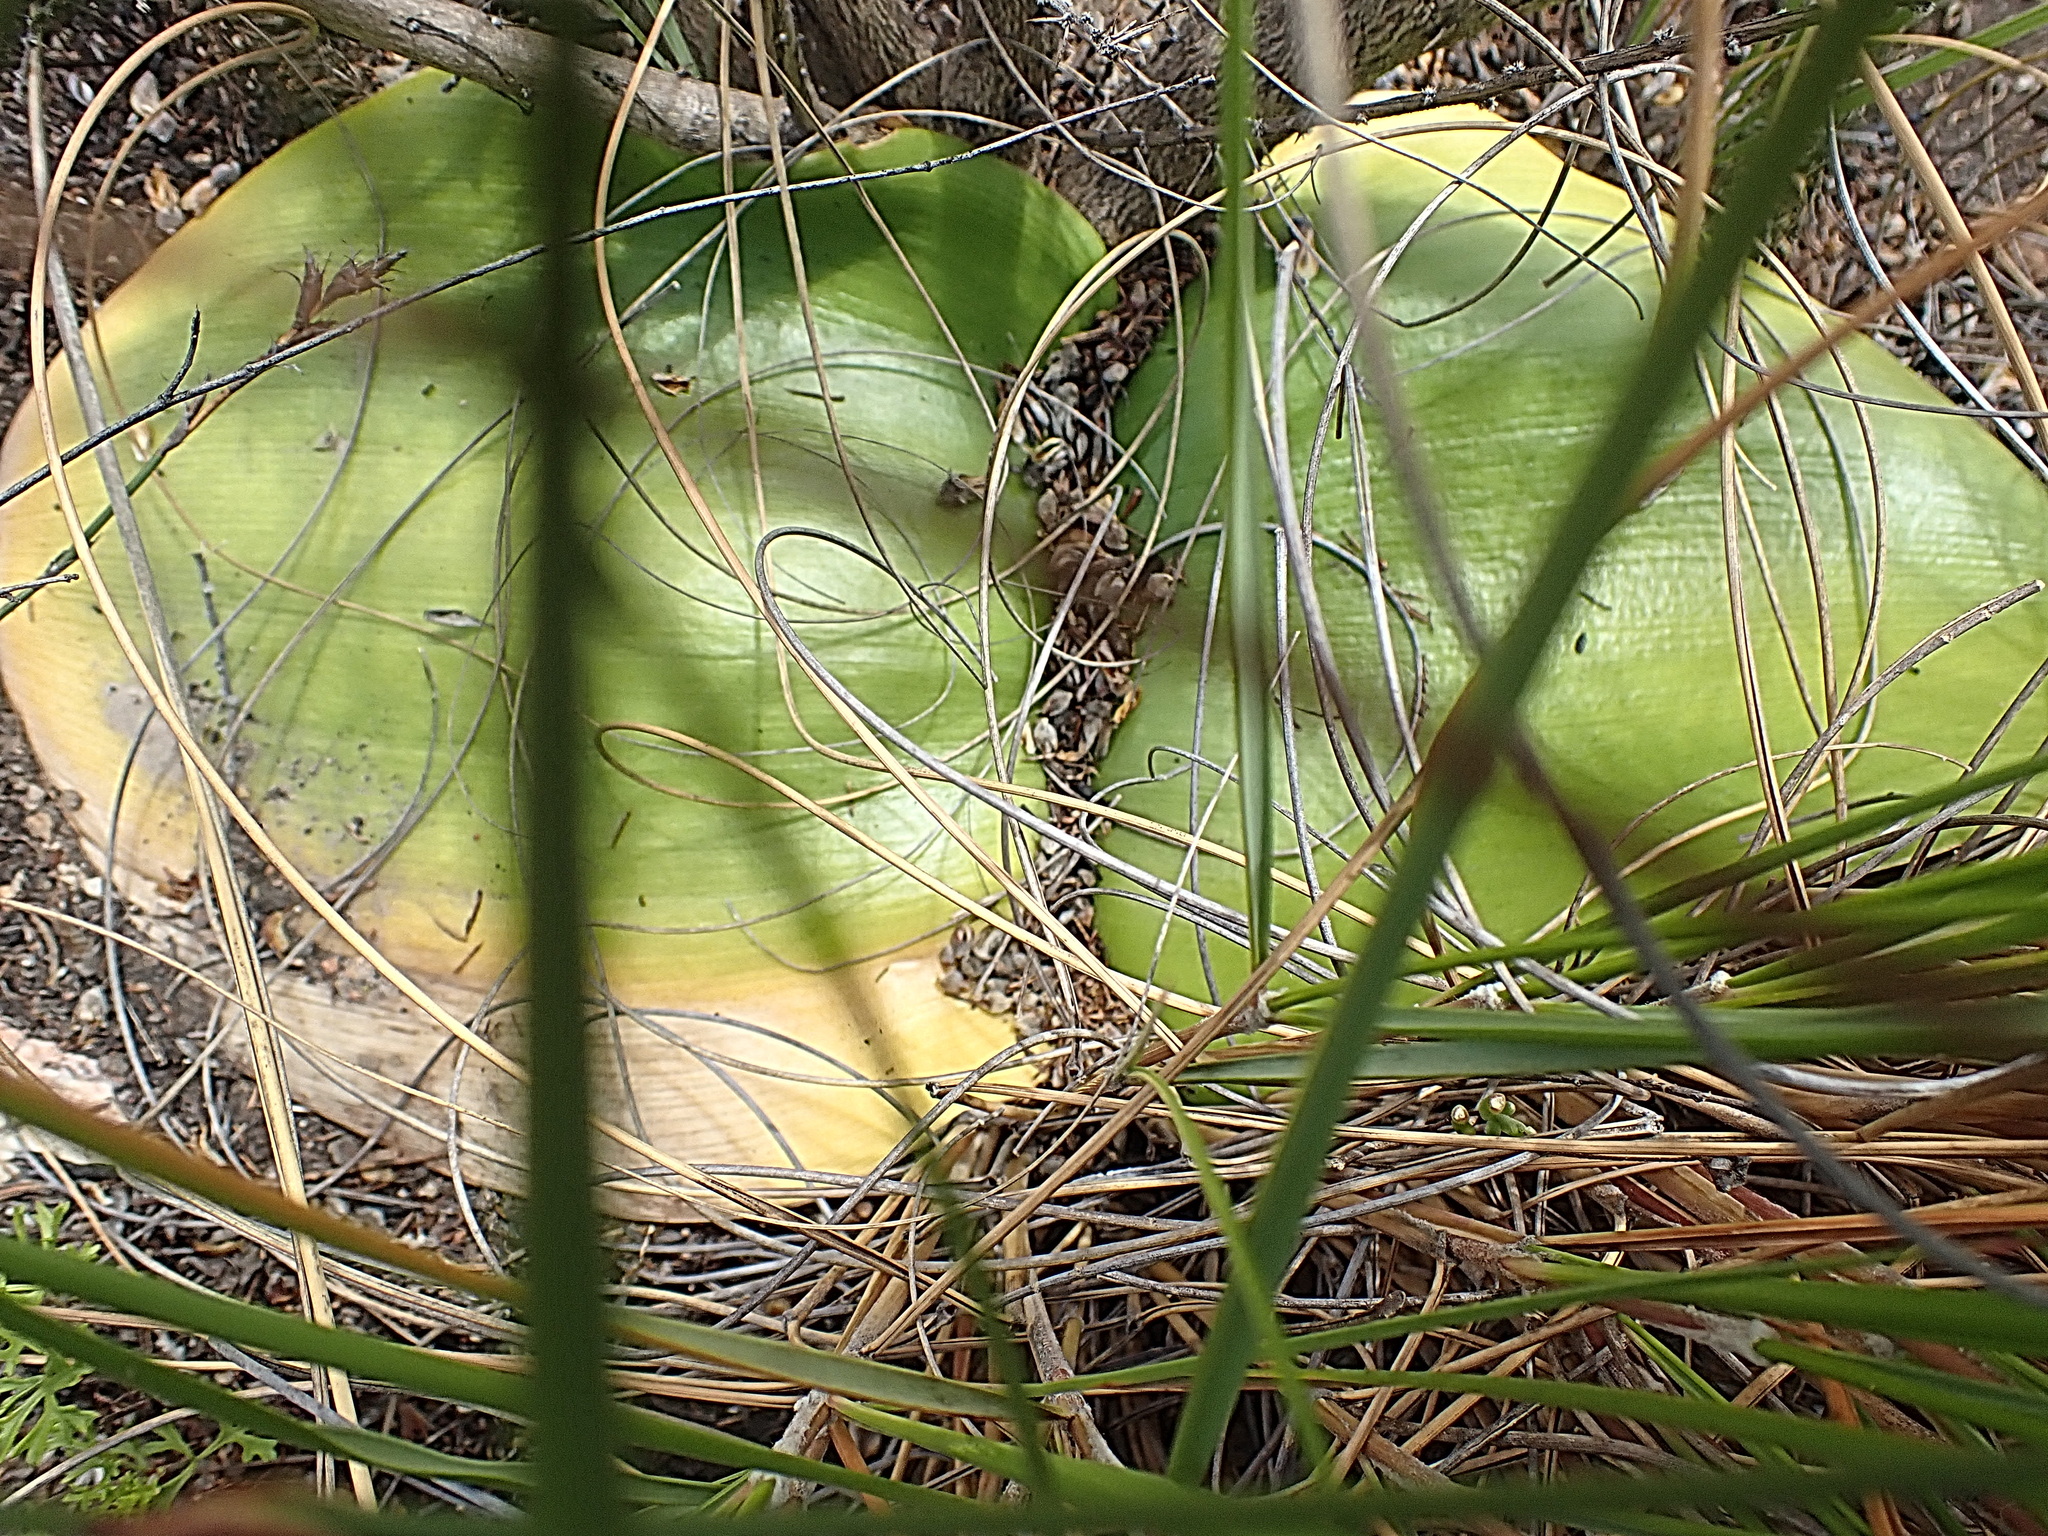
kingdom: Plantae
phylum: Tracheophyta
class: Liliopsida
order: Asparagales
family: Amaryllidaceae
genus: Haemanthus
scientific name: Haemanthus sanguineus
